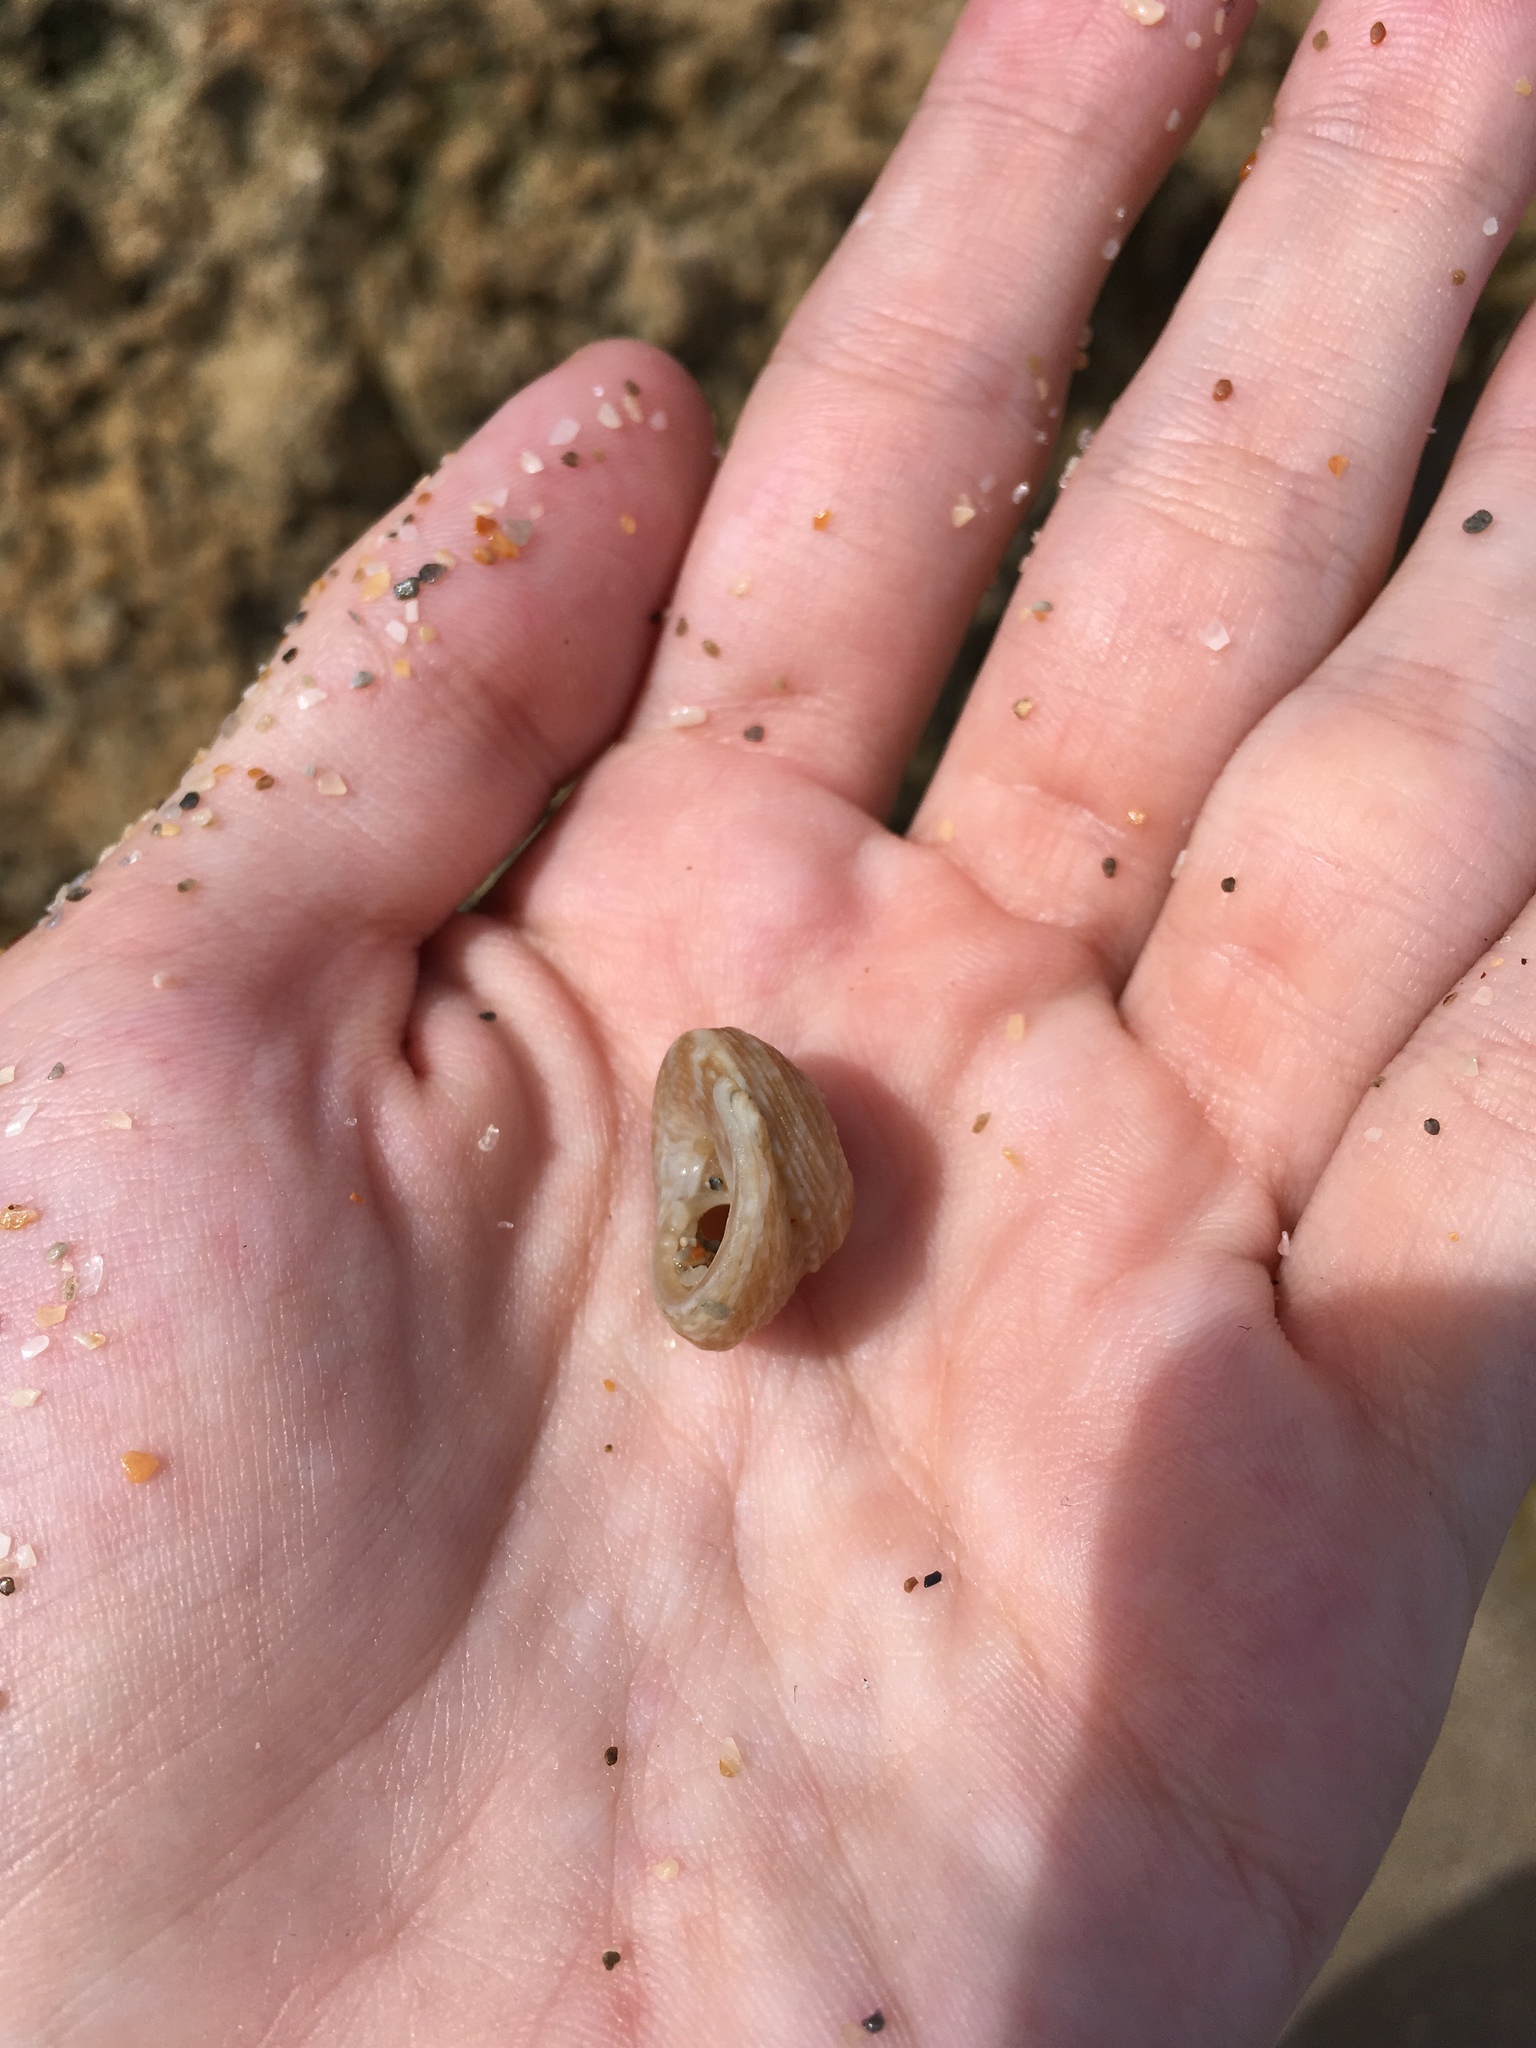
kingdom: Animalia
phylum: Mollusca
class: Gastropoda
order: Trochida
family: Tegulidae
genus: Agathistoma
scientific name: Agathistoma lividomaculatum
